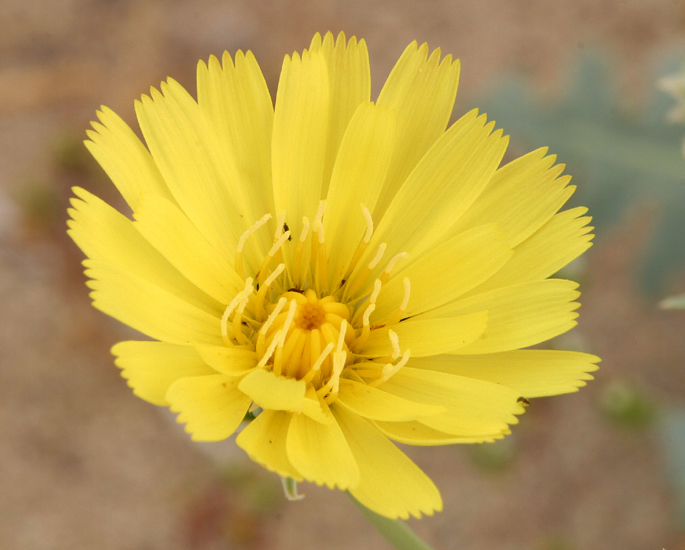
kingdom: Plantae
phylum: Tracheophyta
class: Magnoliopsida
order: Asterales
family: Asteraceae
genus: Malacothrix
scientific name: Malacothrix sonchoides
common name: Sow-thistle desert-dandelion
